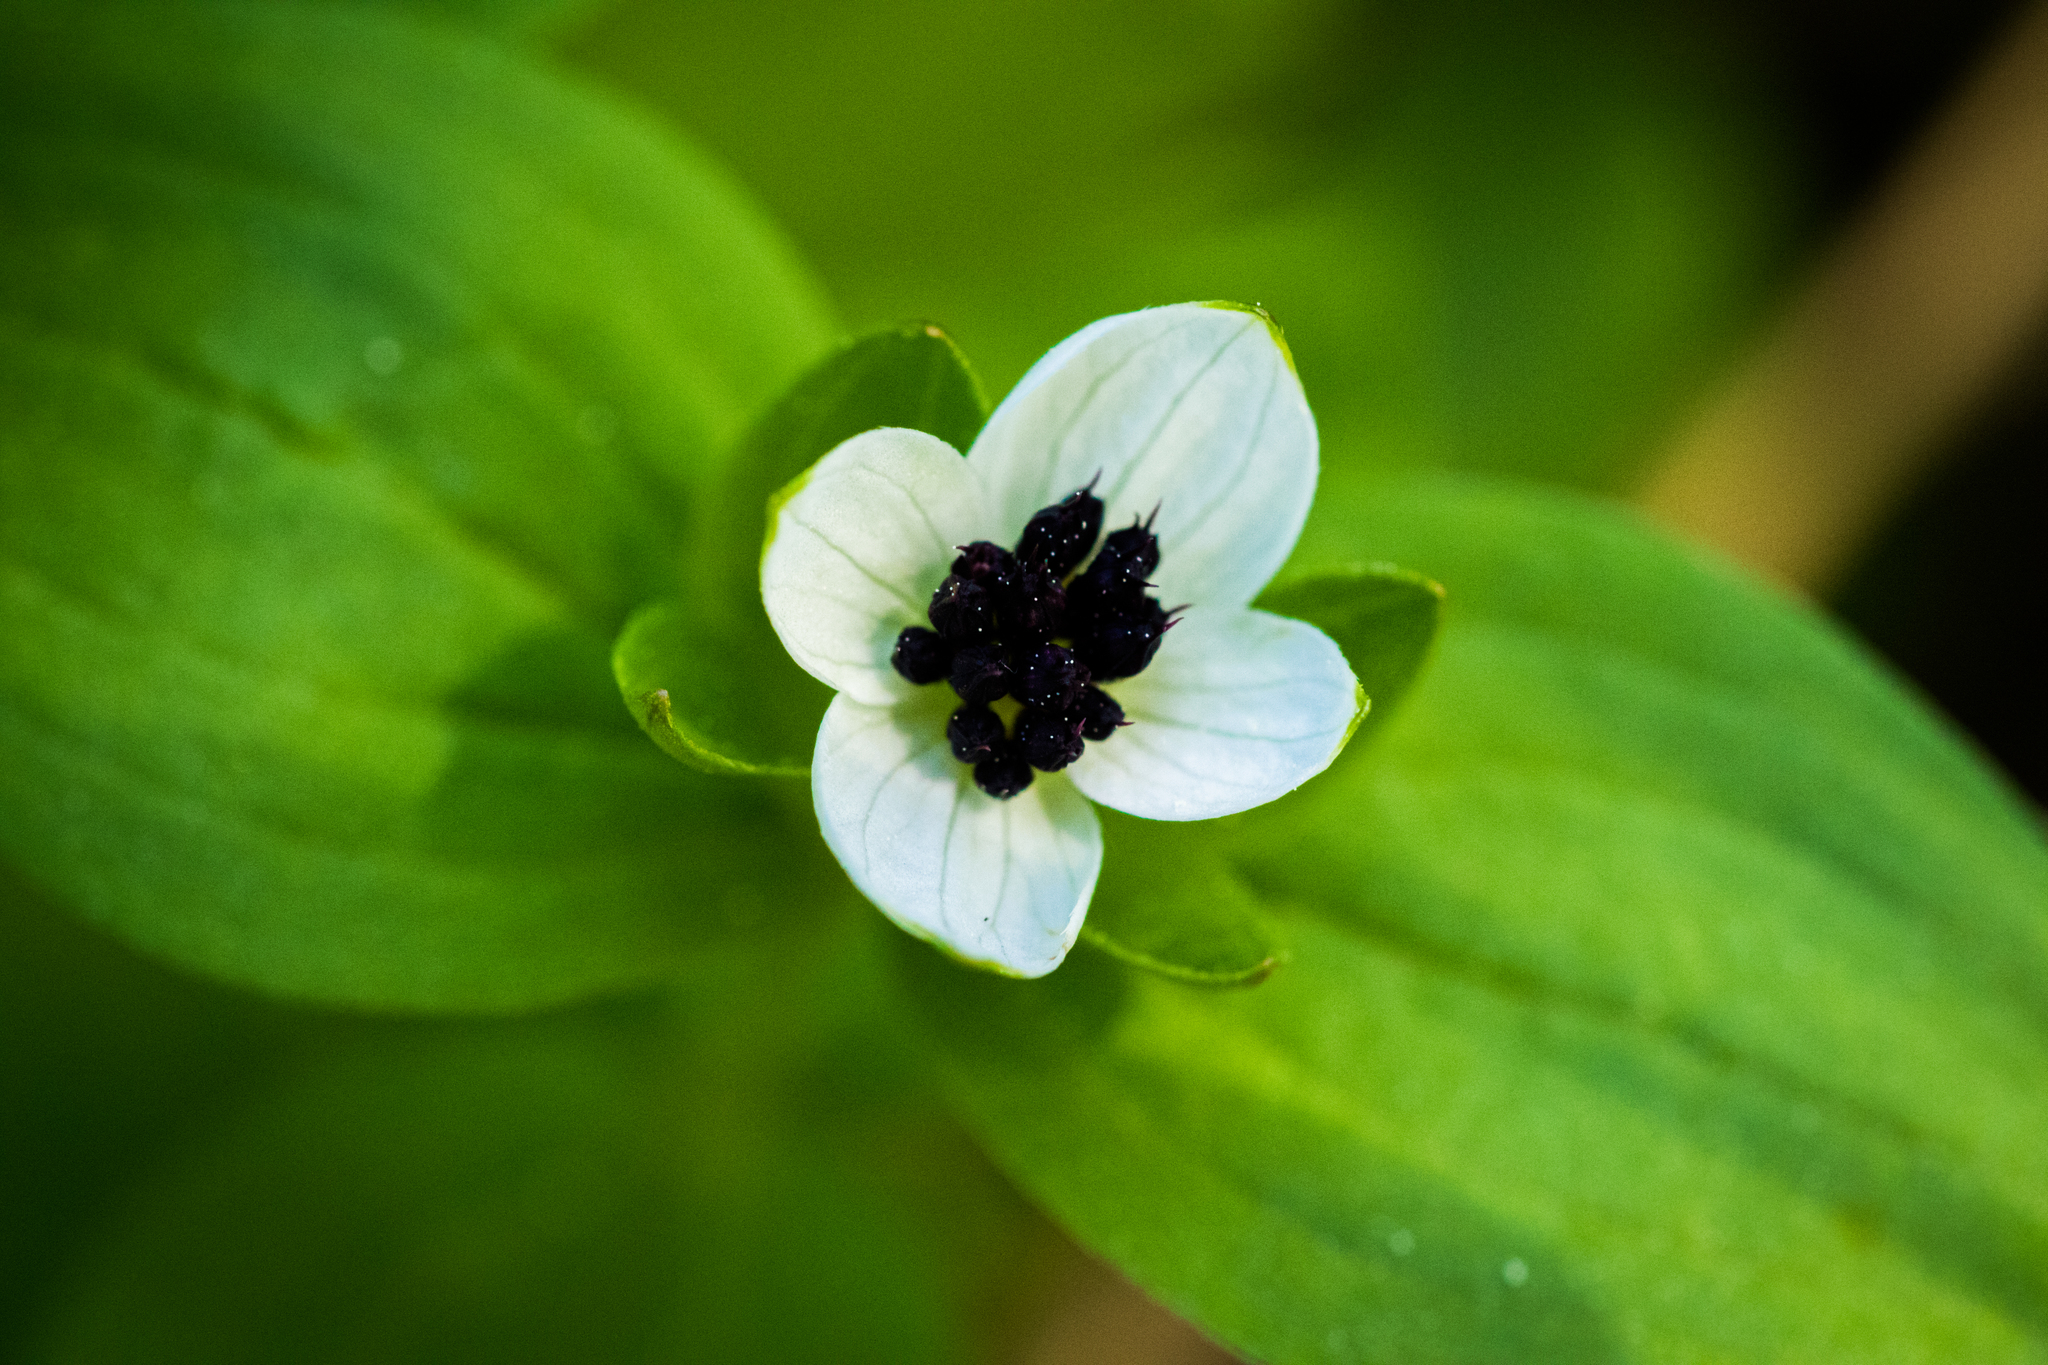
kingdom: Plantae
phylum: Tracheophyta
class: Magnoliopsida
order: Cornales
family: Cornaceae
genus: Cornus
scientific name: Cornus suecica
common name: Dwarf cornel
